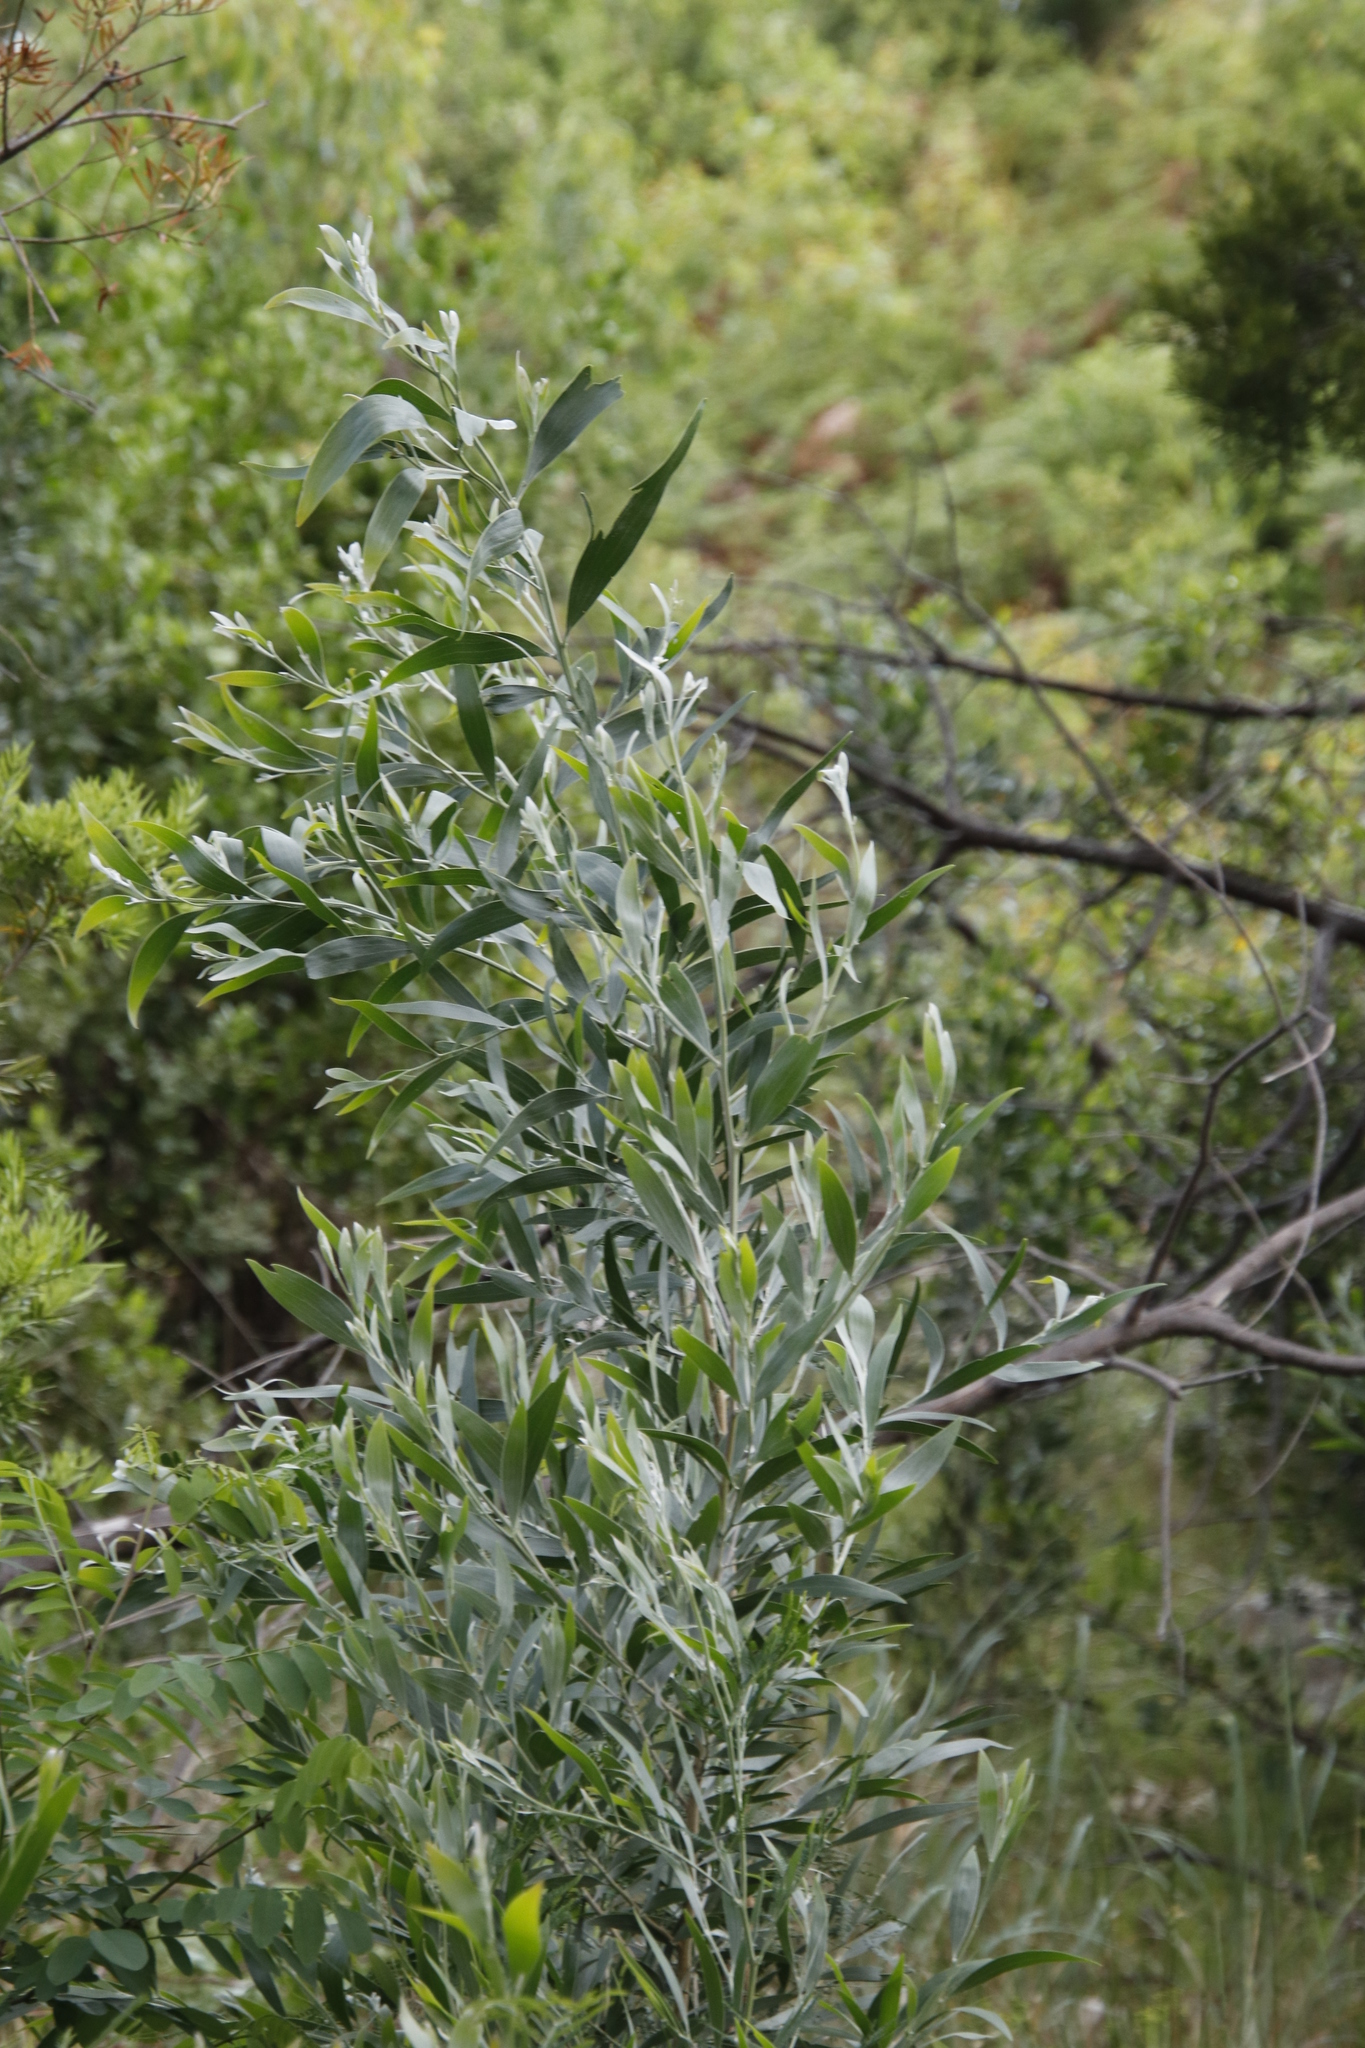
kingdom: Plantae
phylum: Tracheophyta
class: Magnoliopsida
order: Fabales
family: Fabaceae
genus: Acacia
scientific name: Acacia melanoxylon
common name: Blackwood
